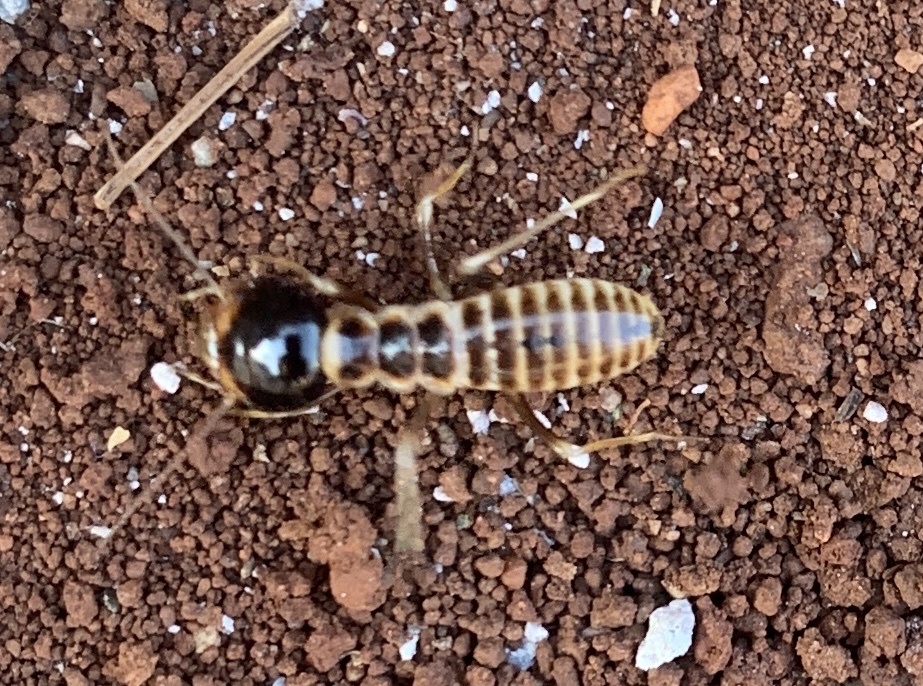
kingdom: Animalia
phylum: Arthropoda
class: Insecta
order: Blattodea
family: Hodotermitidae
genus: Hodotermes
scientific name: Hodotermes mossambicus
